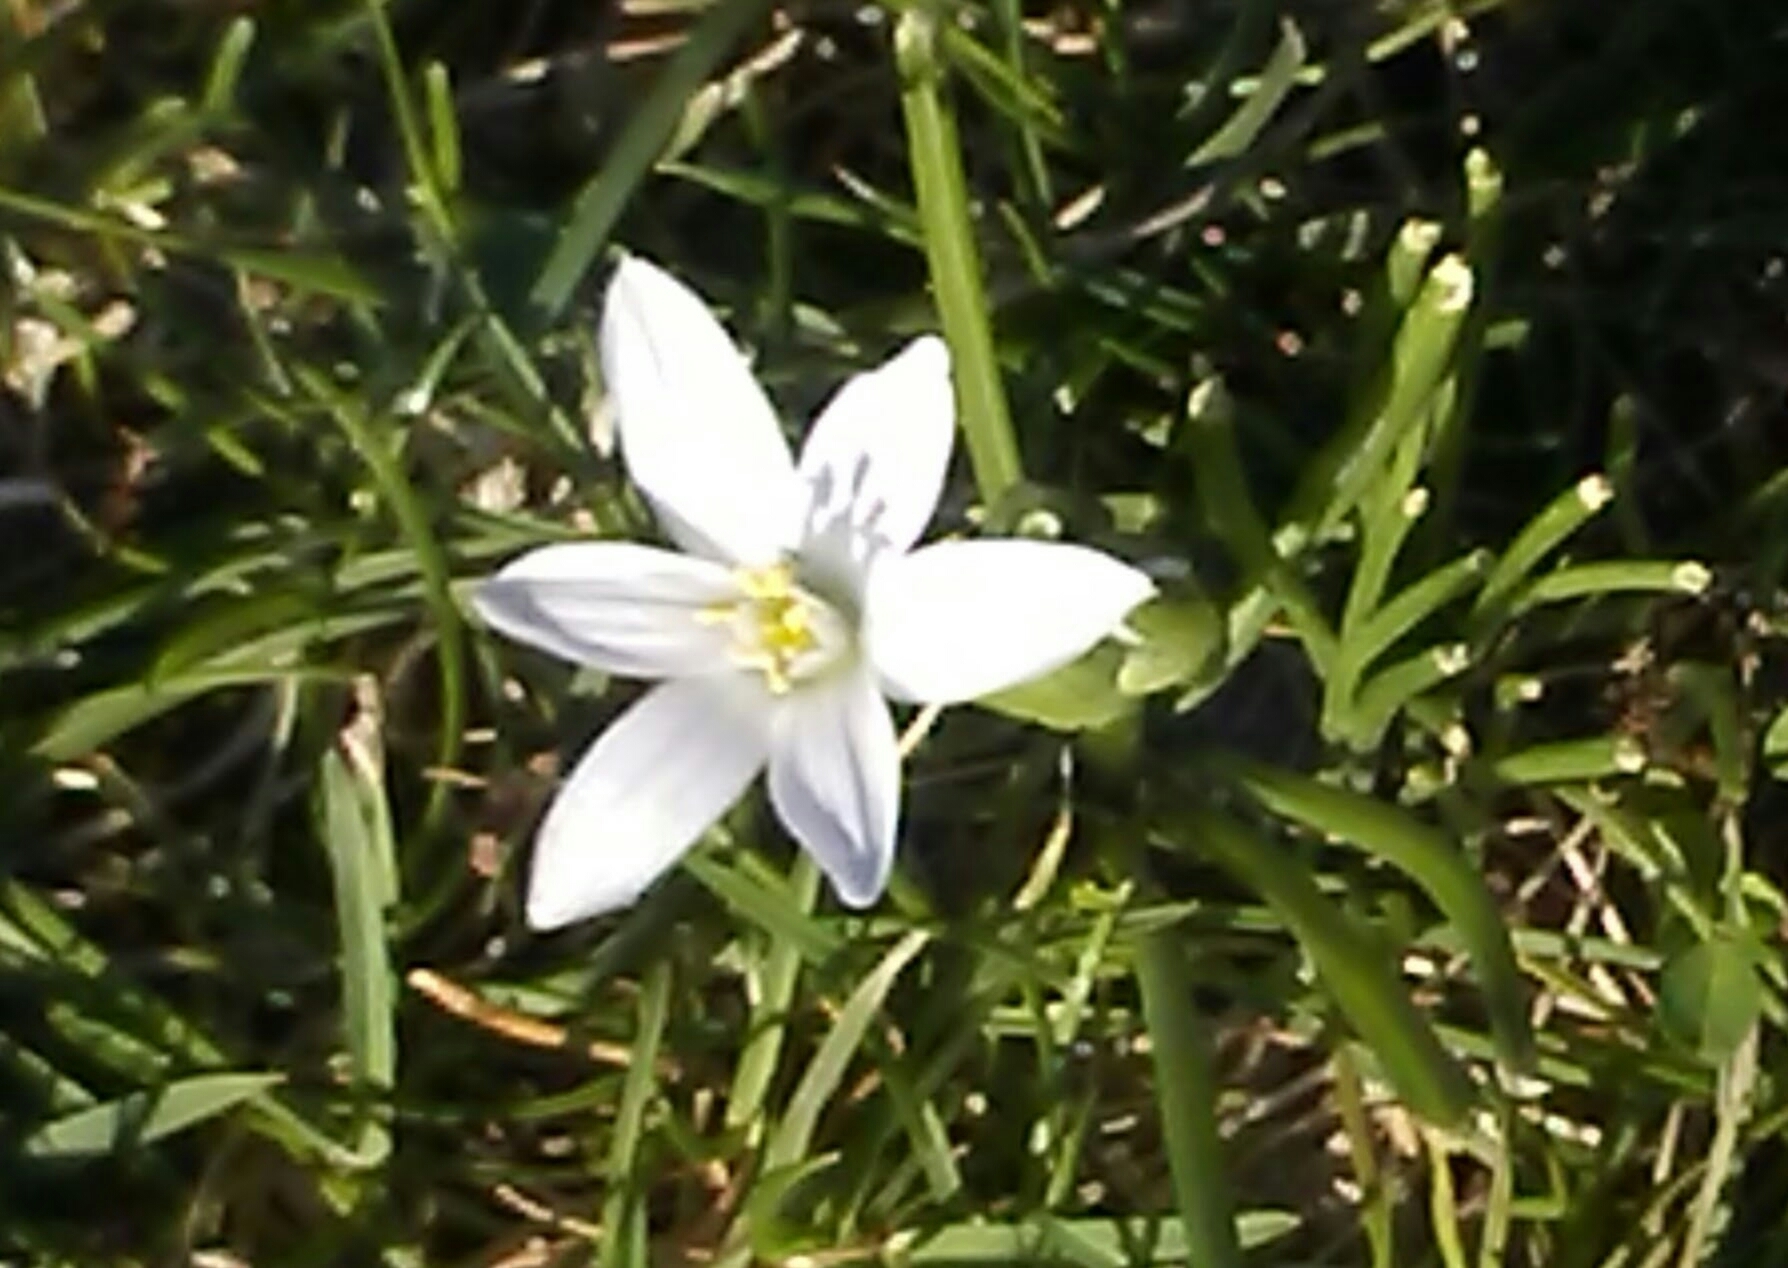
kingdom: Plantae
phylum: Tracheophyta
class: Liliopsida
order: Asparagales
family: Asparagaceae
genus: Ornithogalum
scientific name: Ornithogalum umbellatum
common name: Garden star-of-bethlehem
